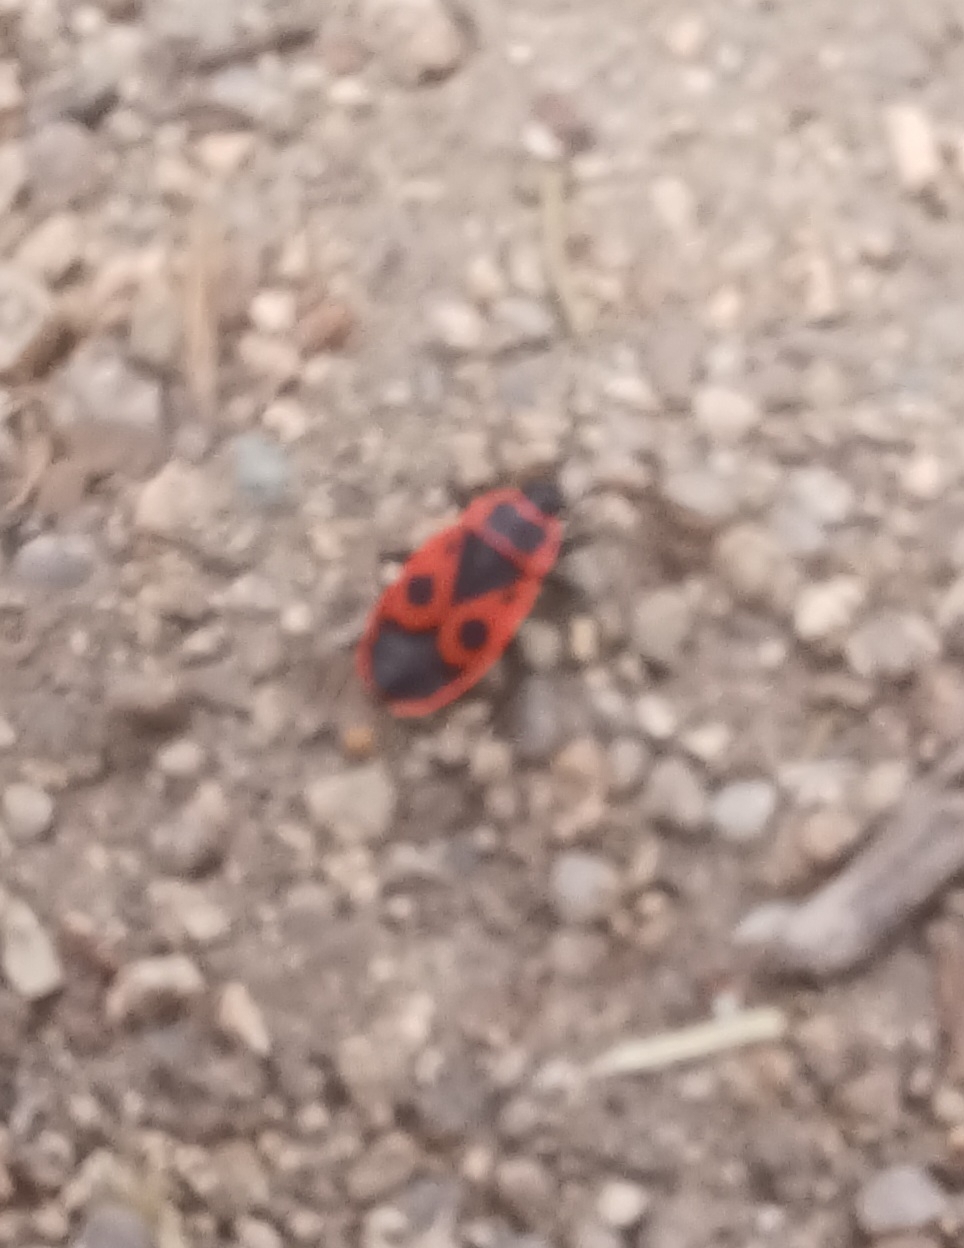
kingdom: Animalia
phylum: Arthropoda
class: Insecta
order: Hemiptera
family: Pyrrhocoridae
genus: Pyrrhocoris
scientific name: Pyrrhocoris apterus
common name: Firebug
